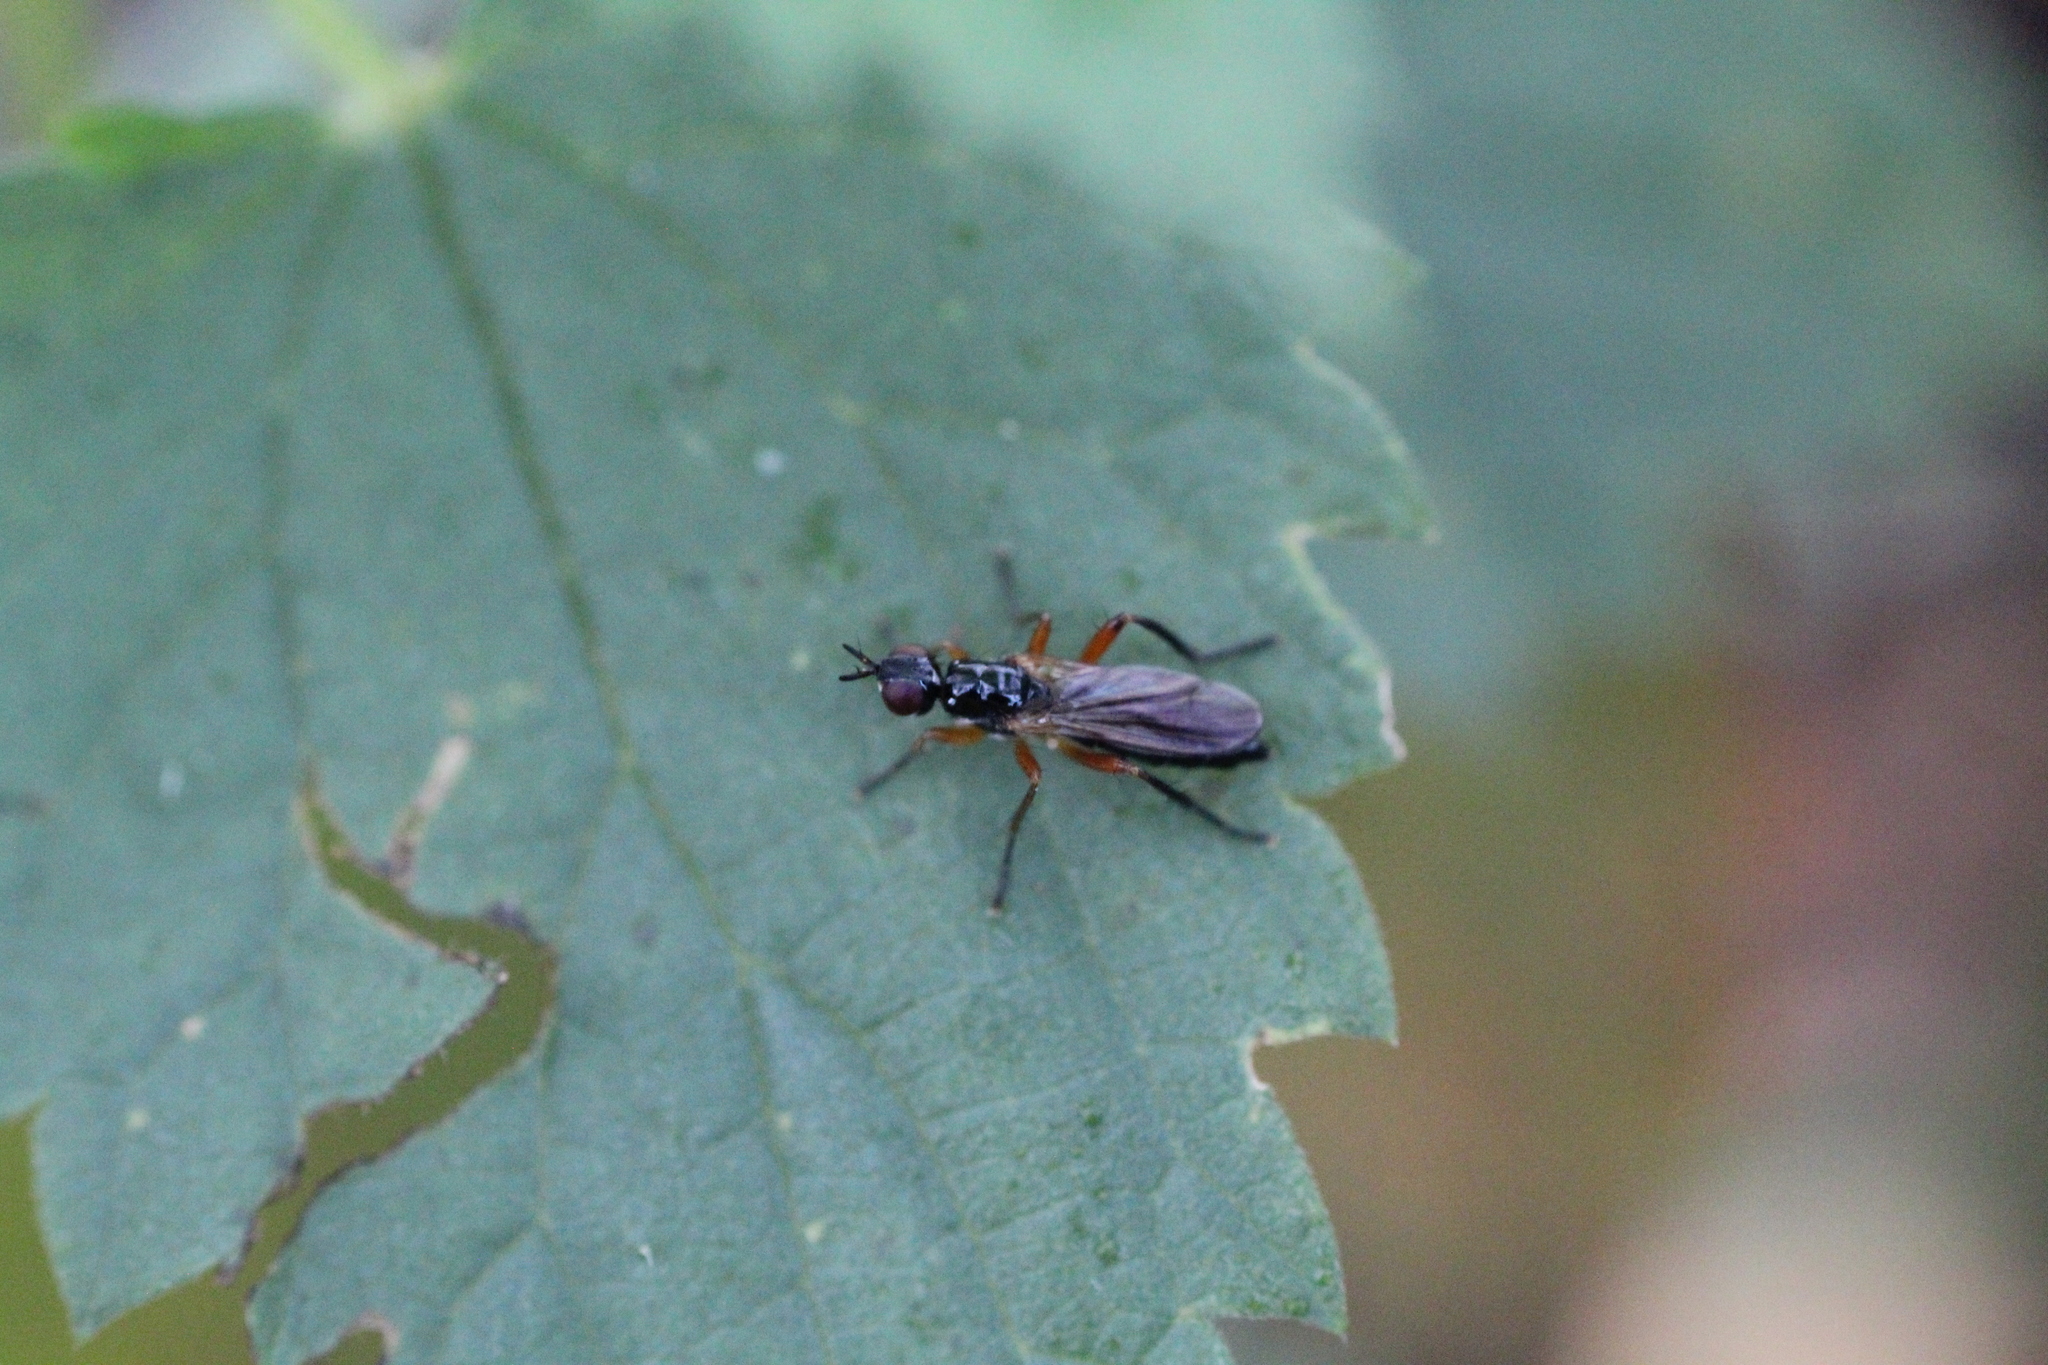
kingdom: Animalia
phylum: Arthropoda
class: Insecta
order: Diptera
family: Scathophagidae
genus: Cordilura
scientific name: Cordilura albilabris
